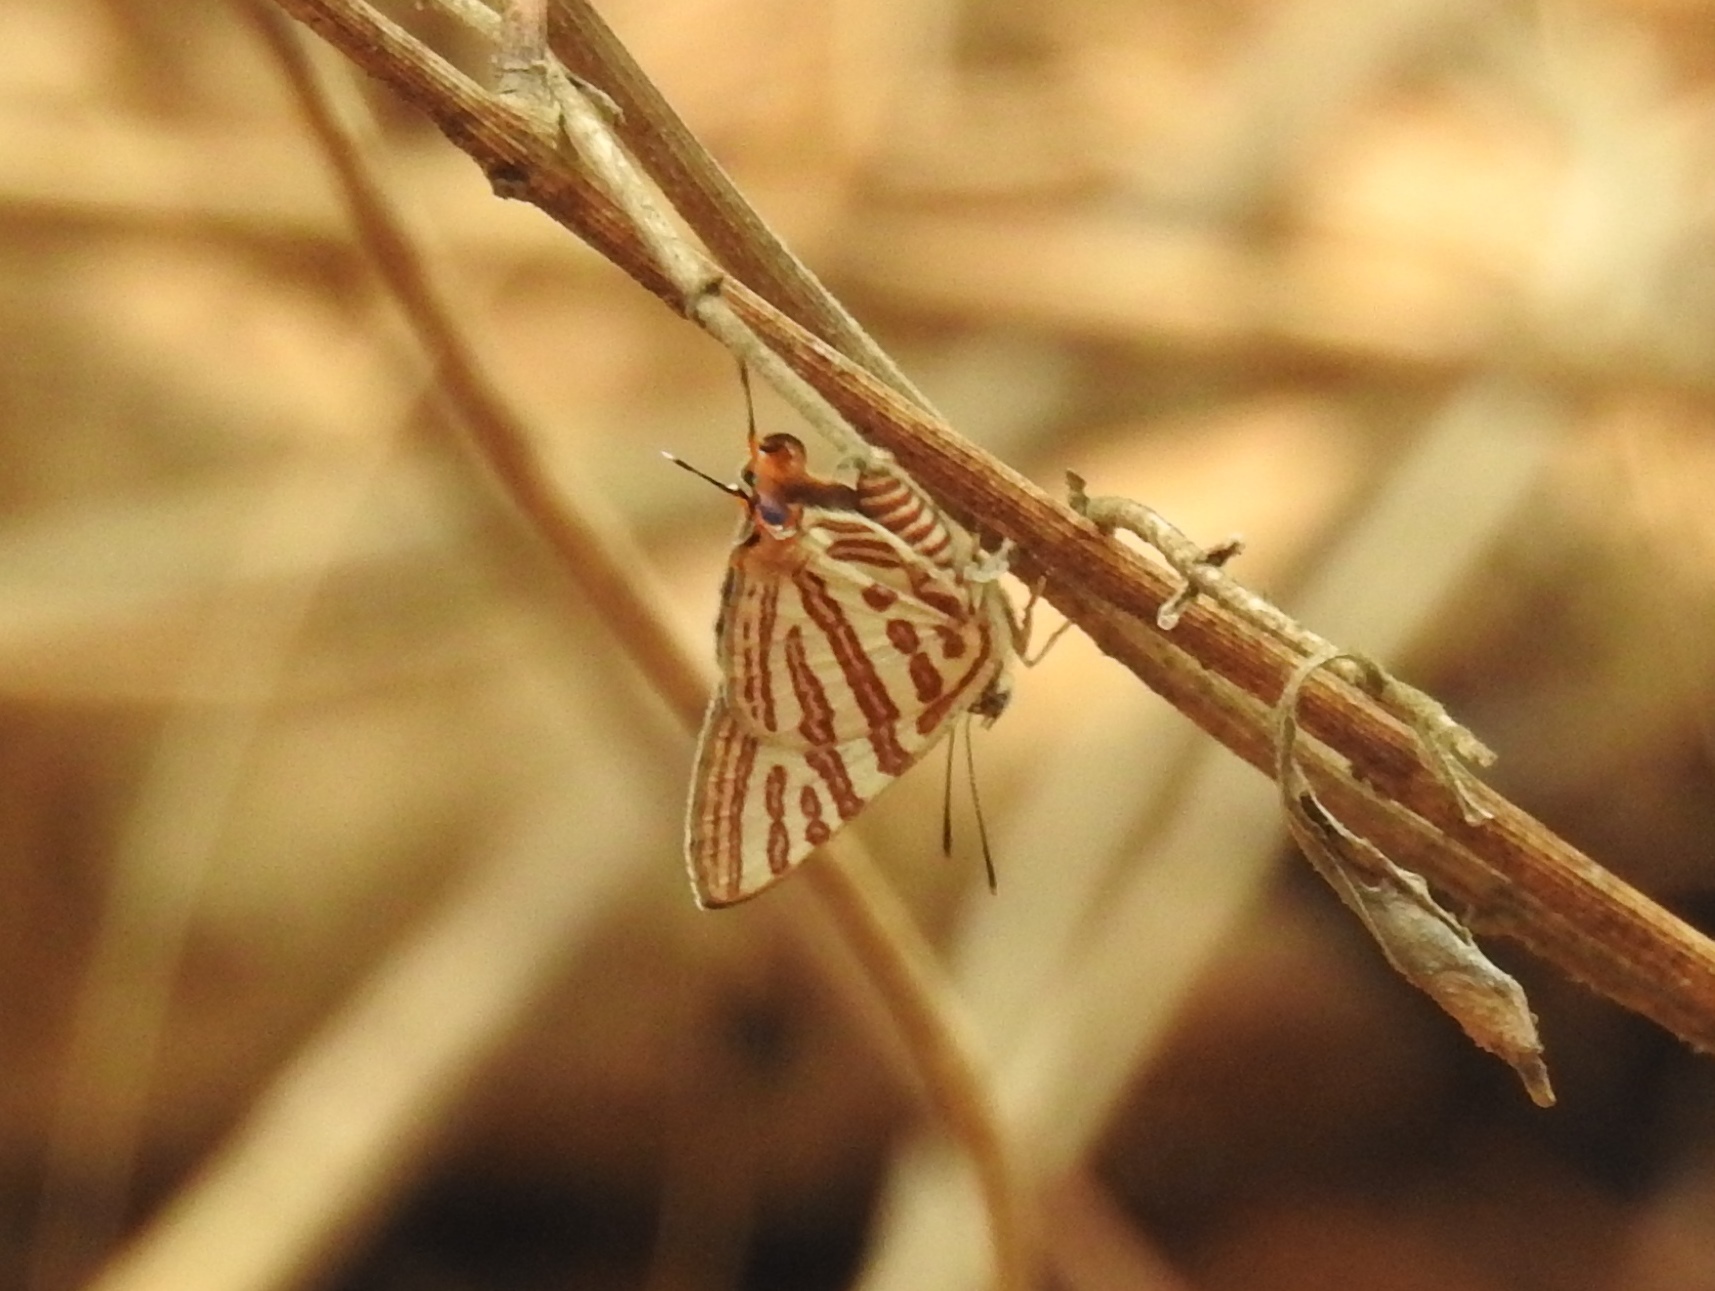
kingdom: Animalia
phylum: Arthropoda
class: Insecta
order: Lepidoptera
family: Lycaenidae
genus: Cigaritis
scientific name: Cigaritis vulcanus
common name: Common silverline
